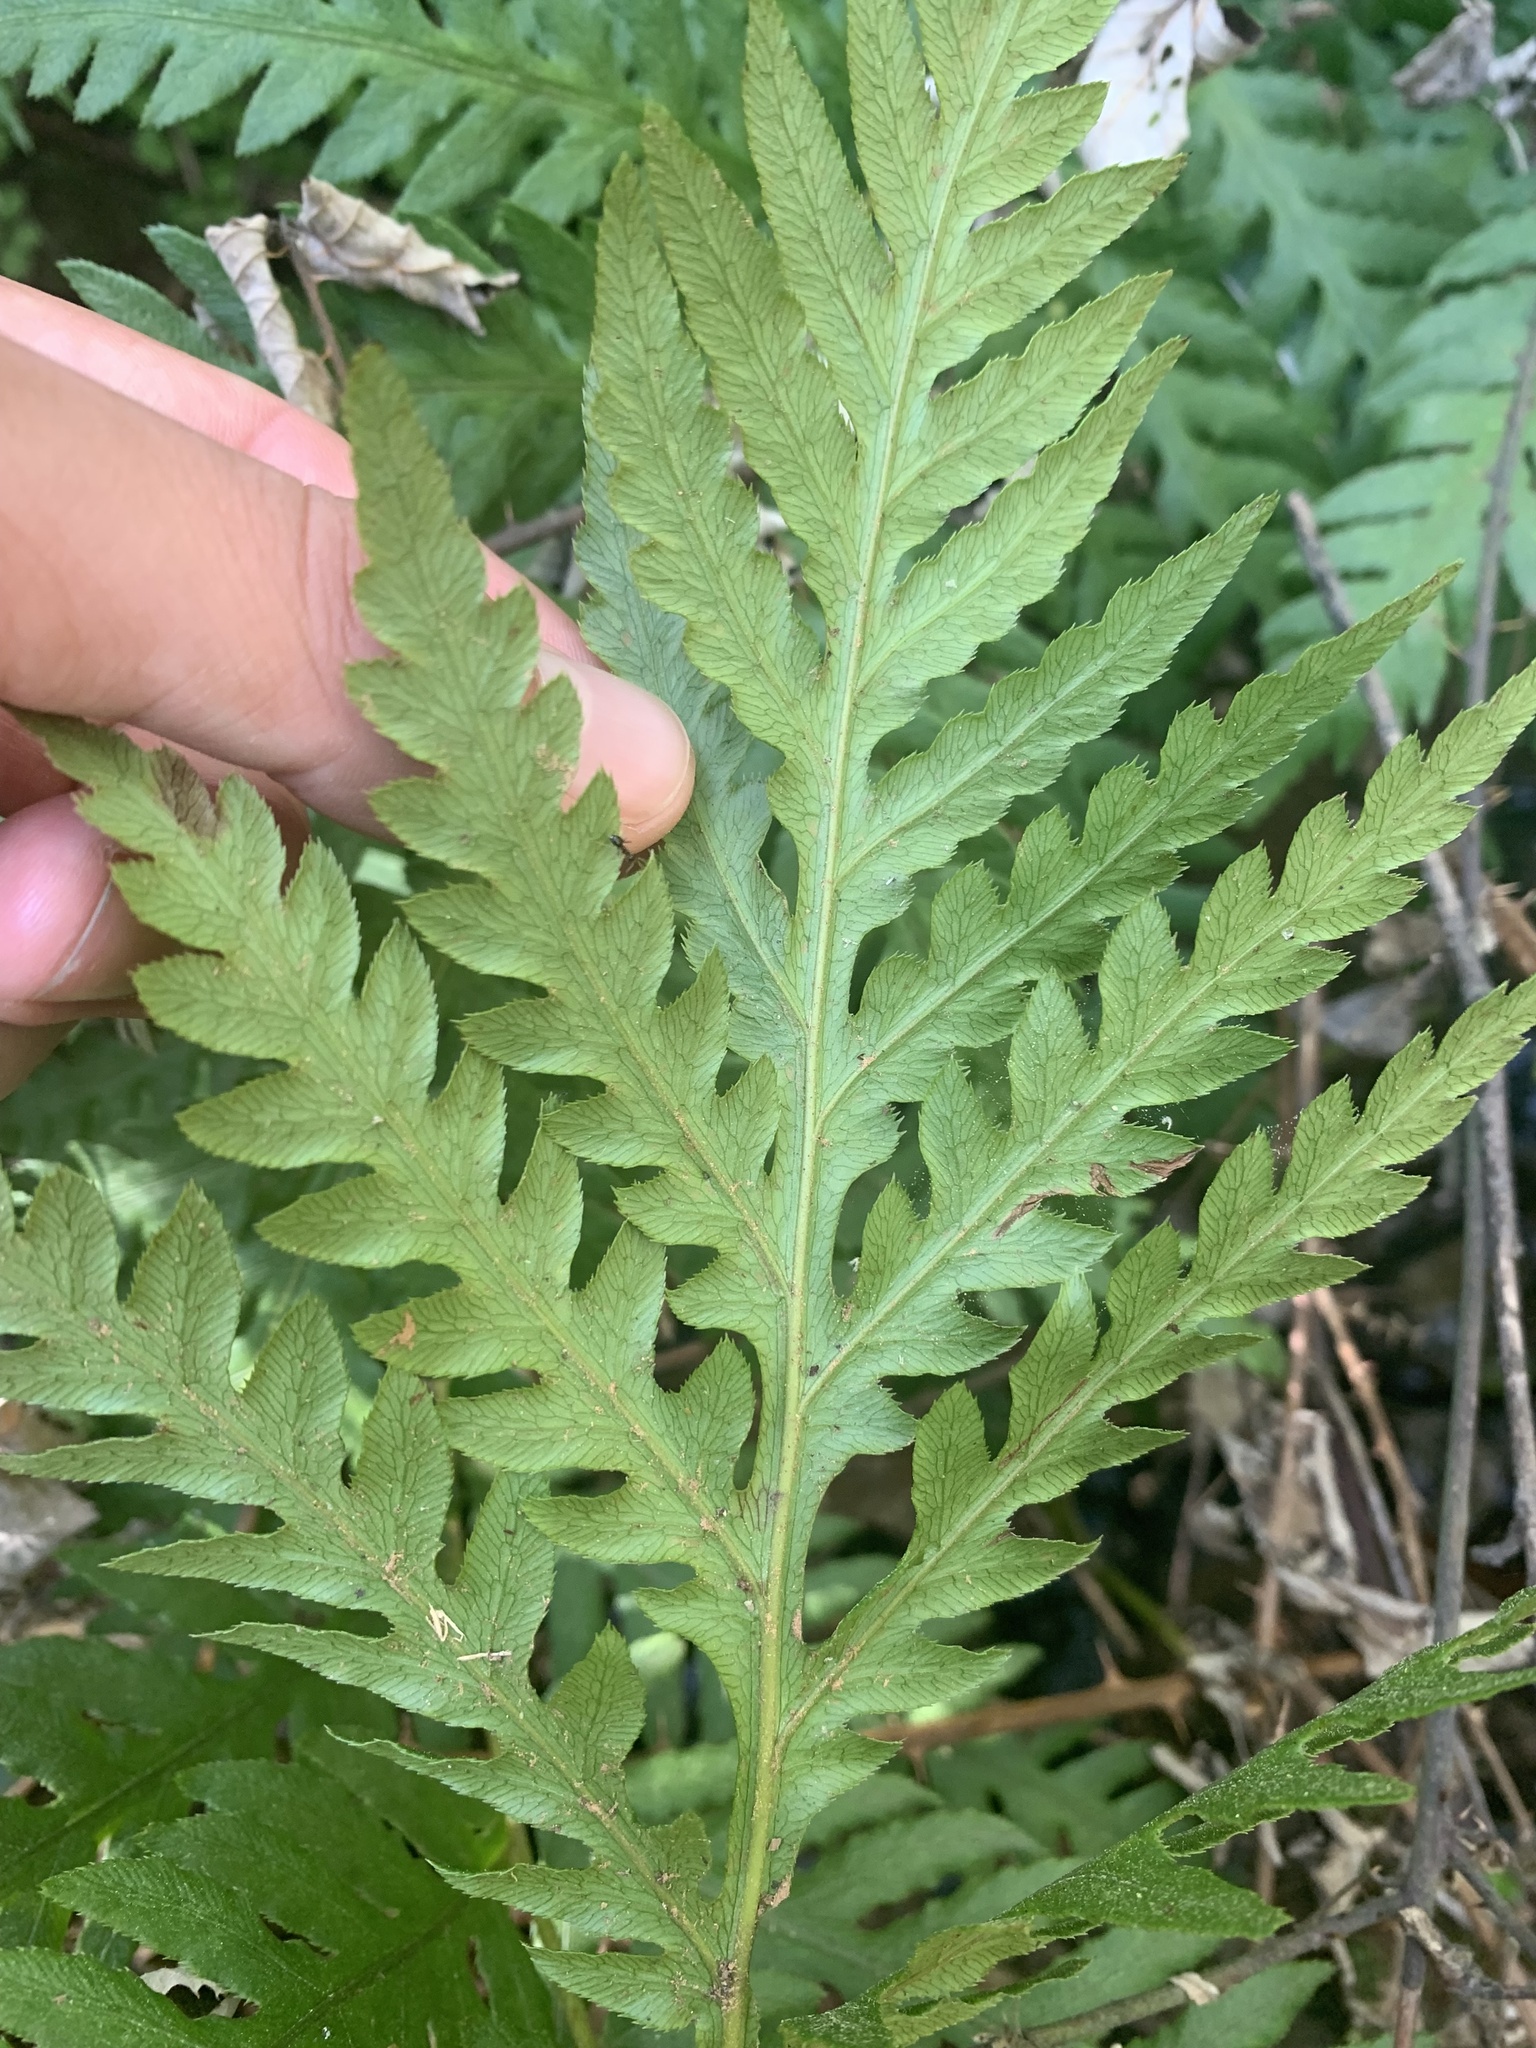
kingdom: Plantae
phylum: Tracheophyta
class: Polypodiopsida
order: Polypodiales
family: Blechnaceae
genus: Woodwardia
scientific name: Woodwardia fimbriata
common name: Giant chain fern
